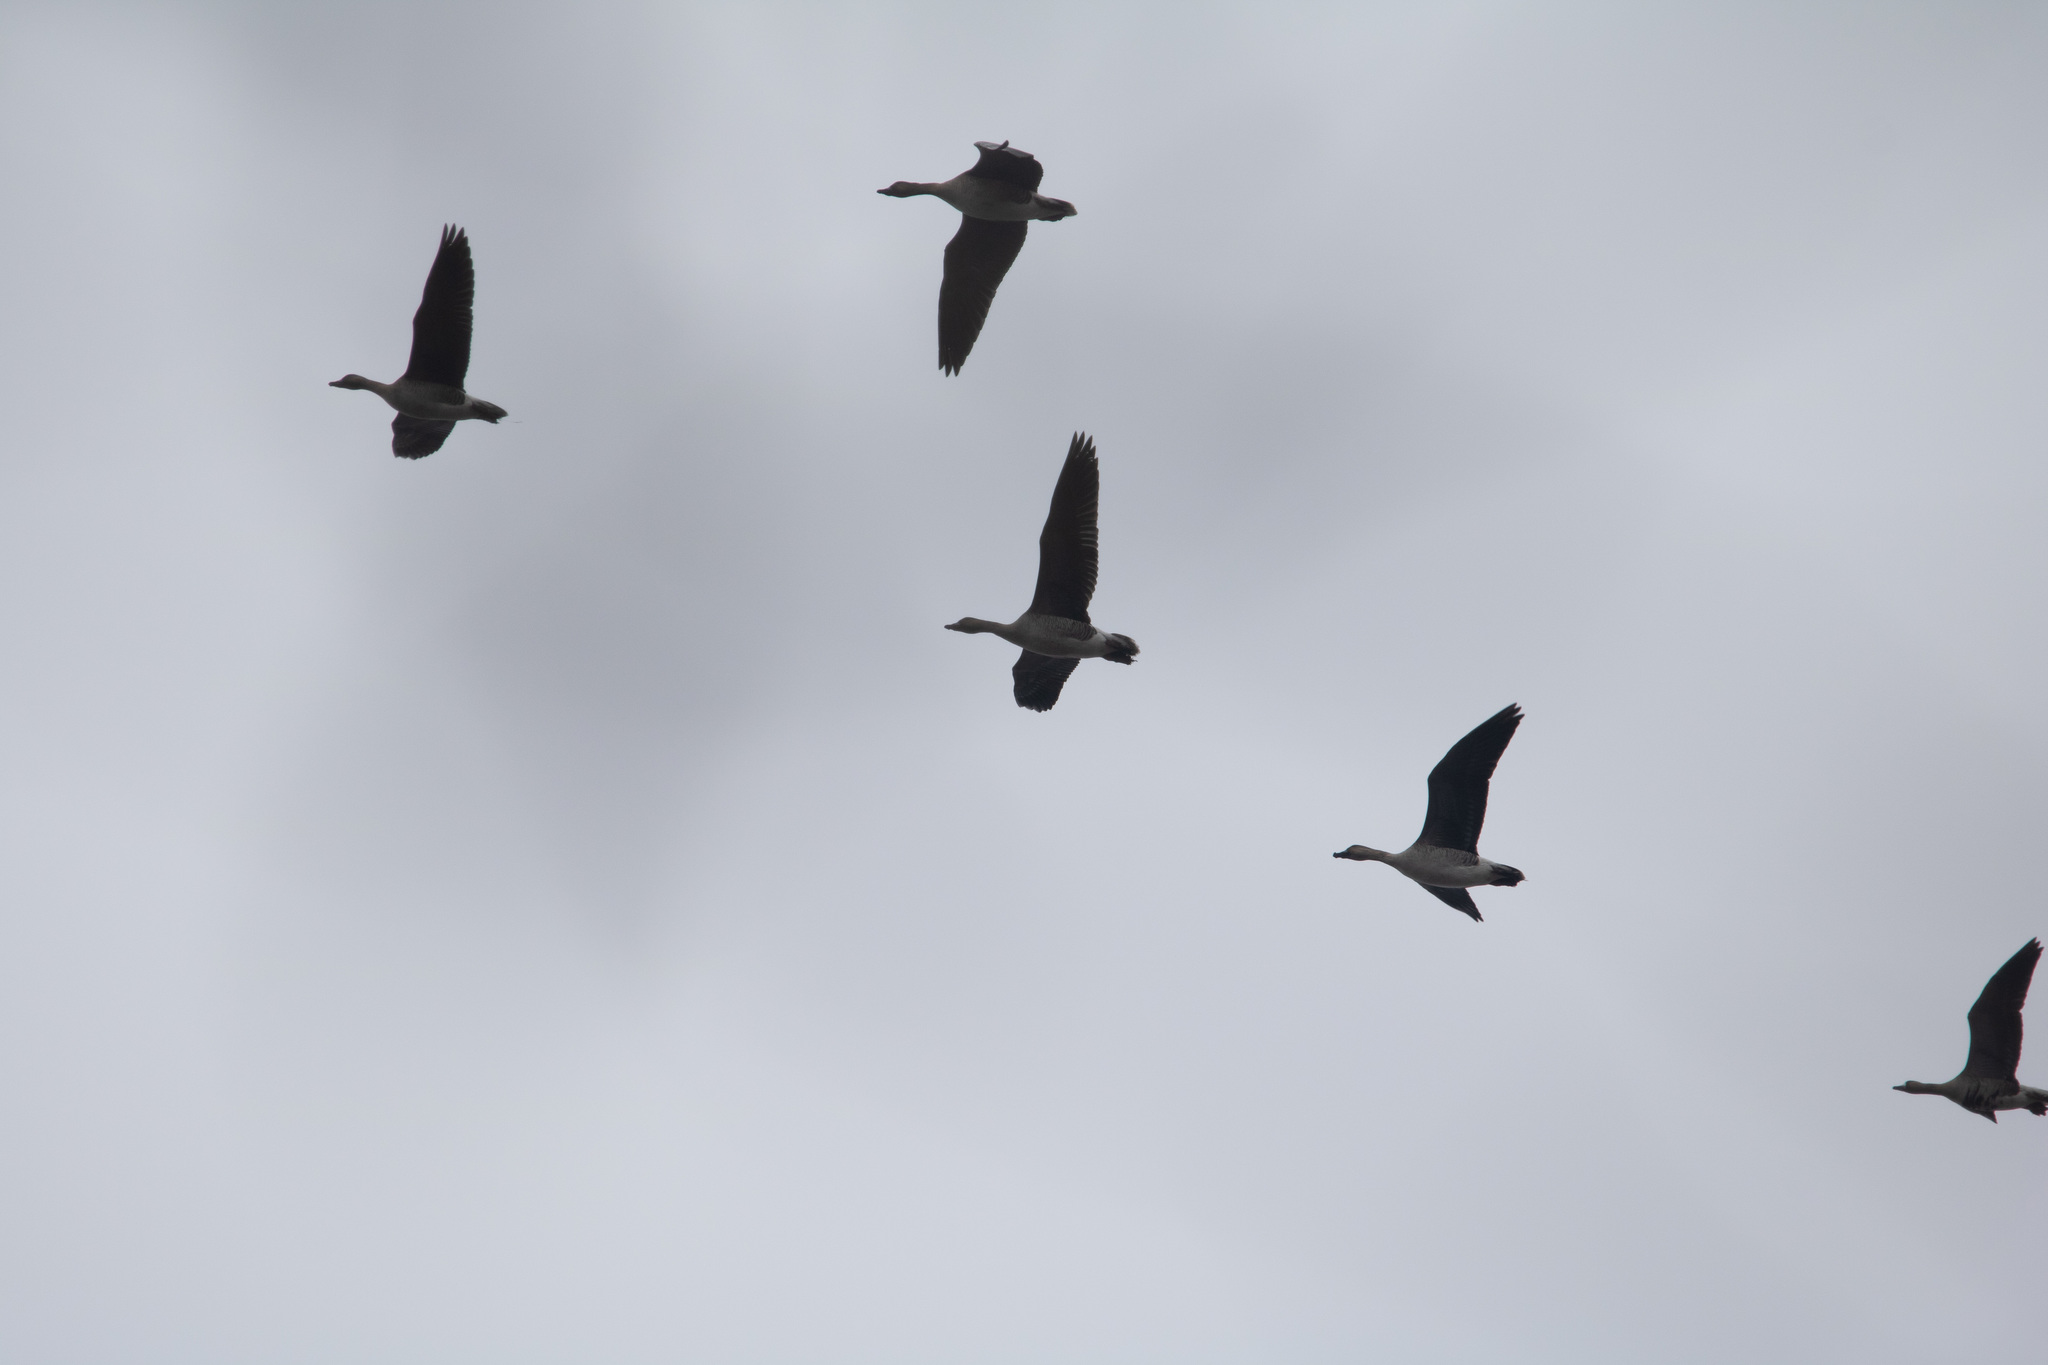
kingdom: Animalia
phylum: Chordata
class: Aves
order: Anseriformes
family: Anatidae
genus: Anser
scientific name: Anser fabalis
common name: Bean goose
